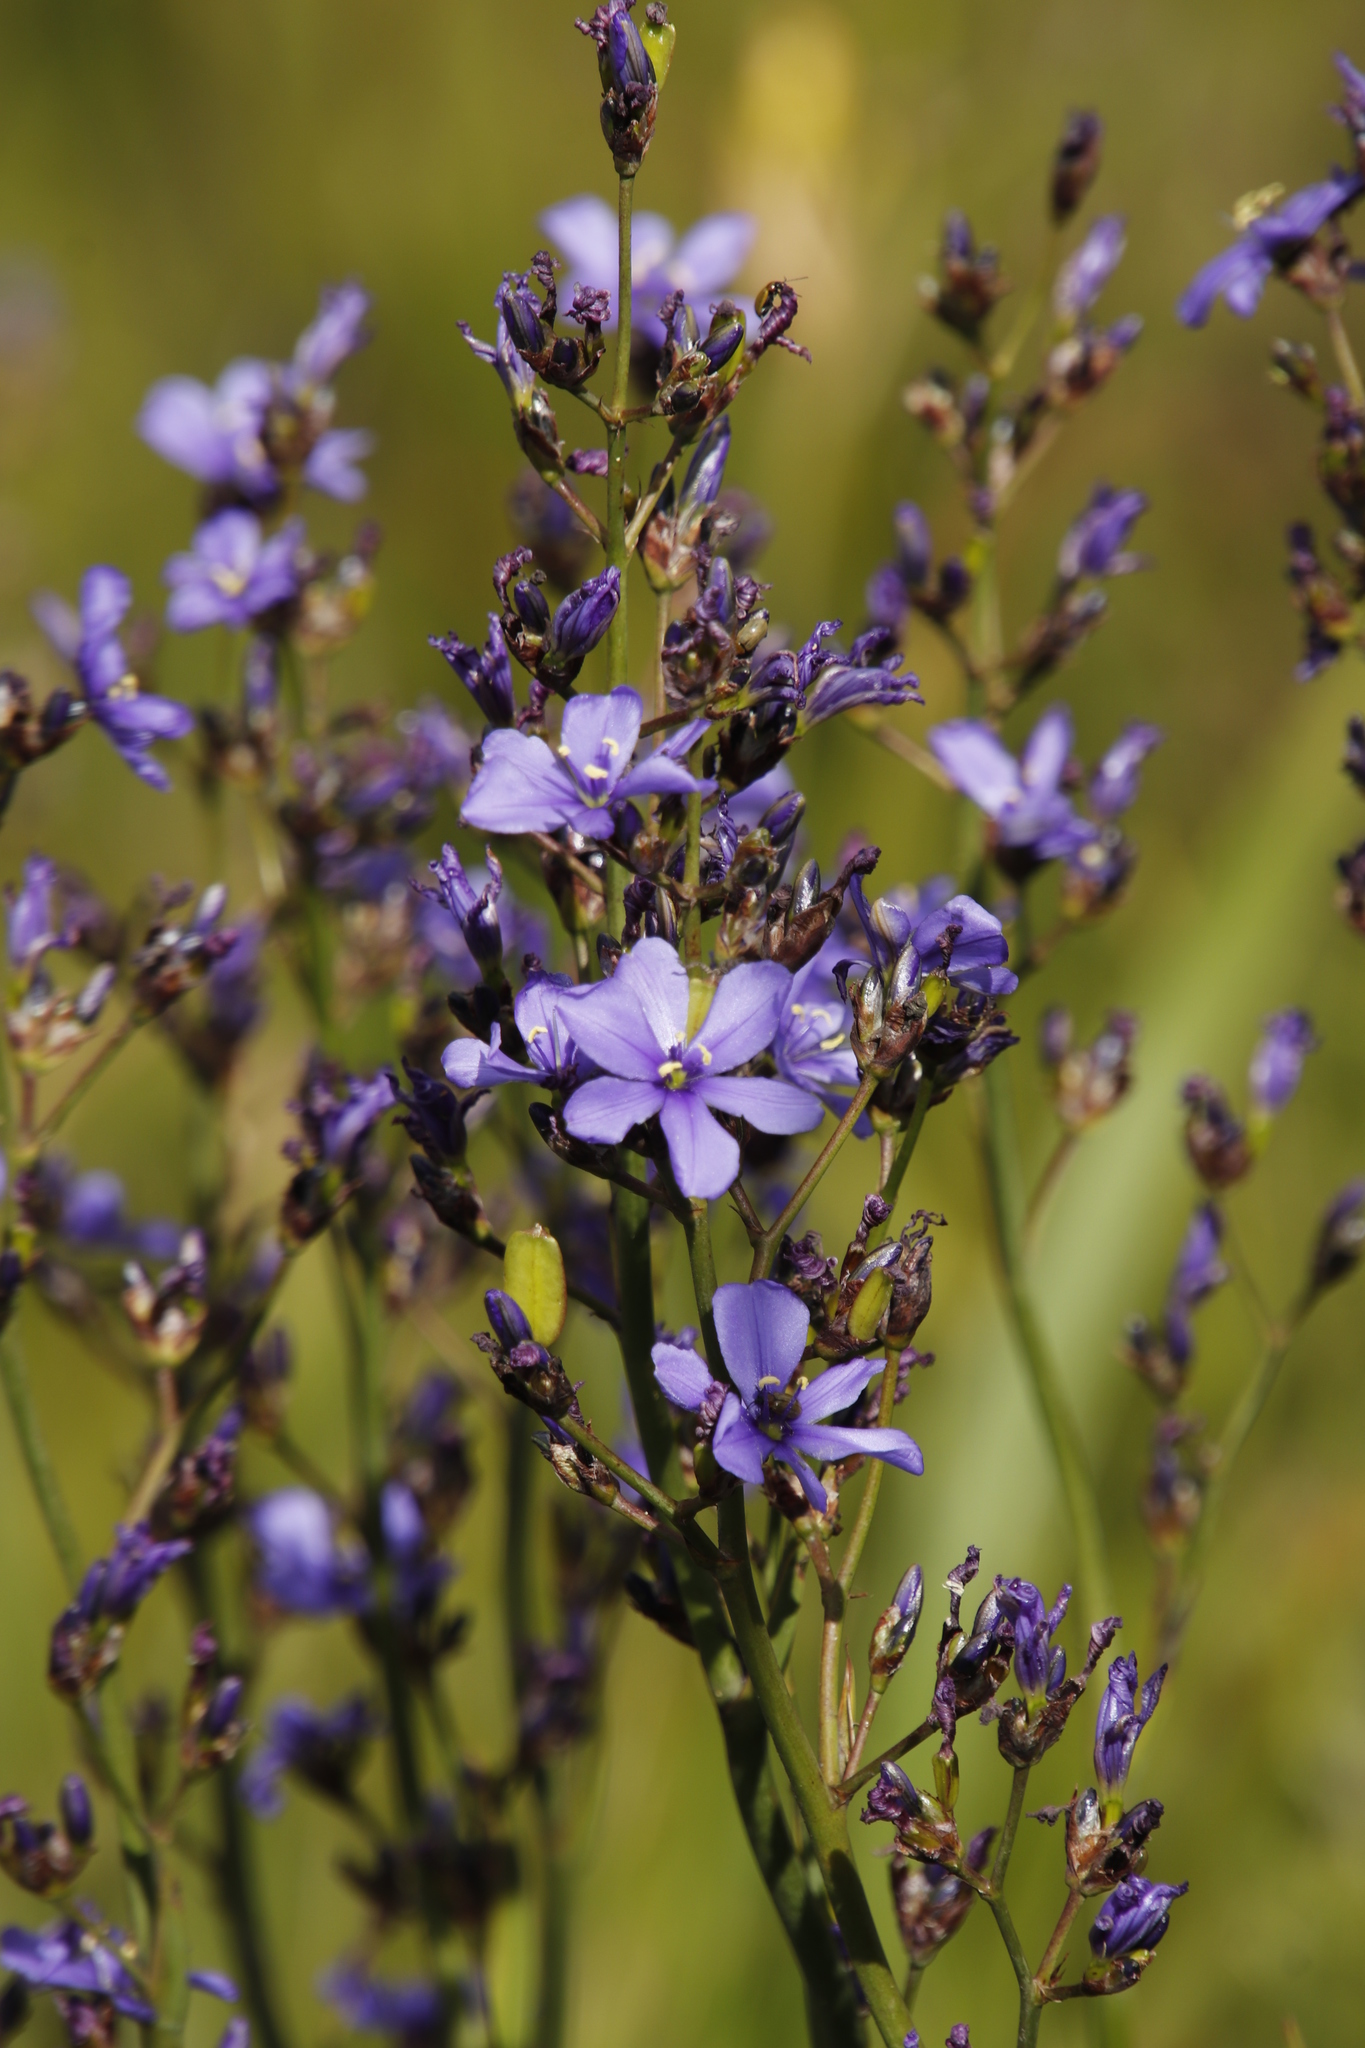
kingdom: Plantae
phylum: Tracheophyta
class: Liliopsida
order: Asparagales
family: Iridaceae
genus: Aristea
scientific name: Aristea bakeri
